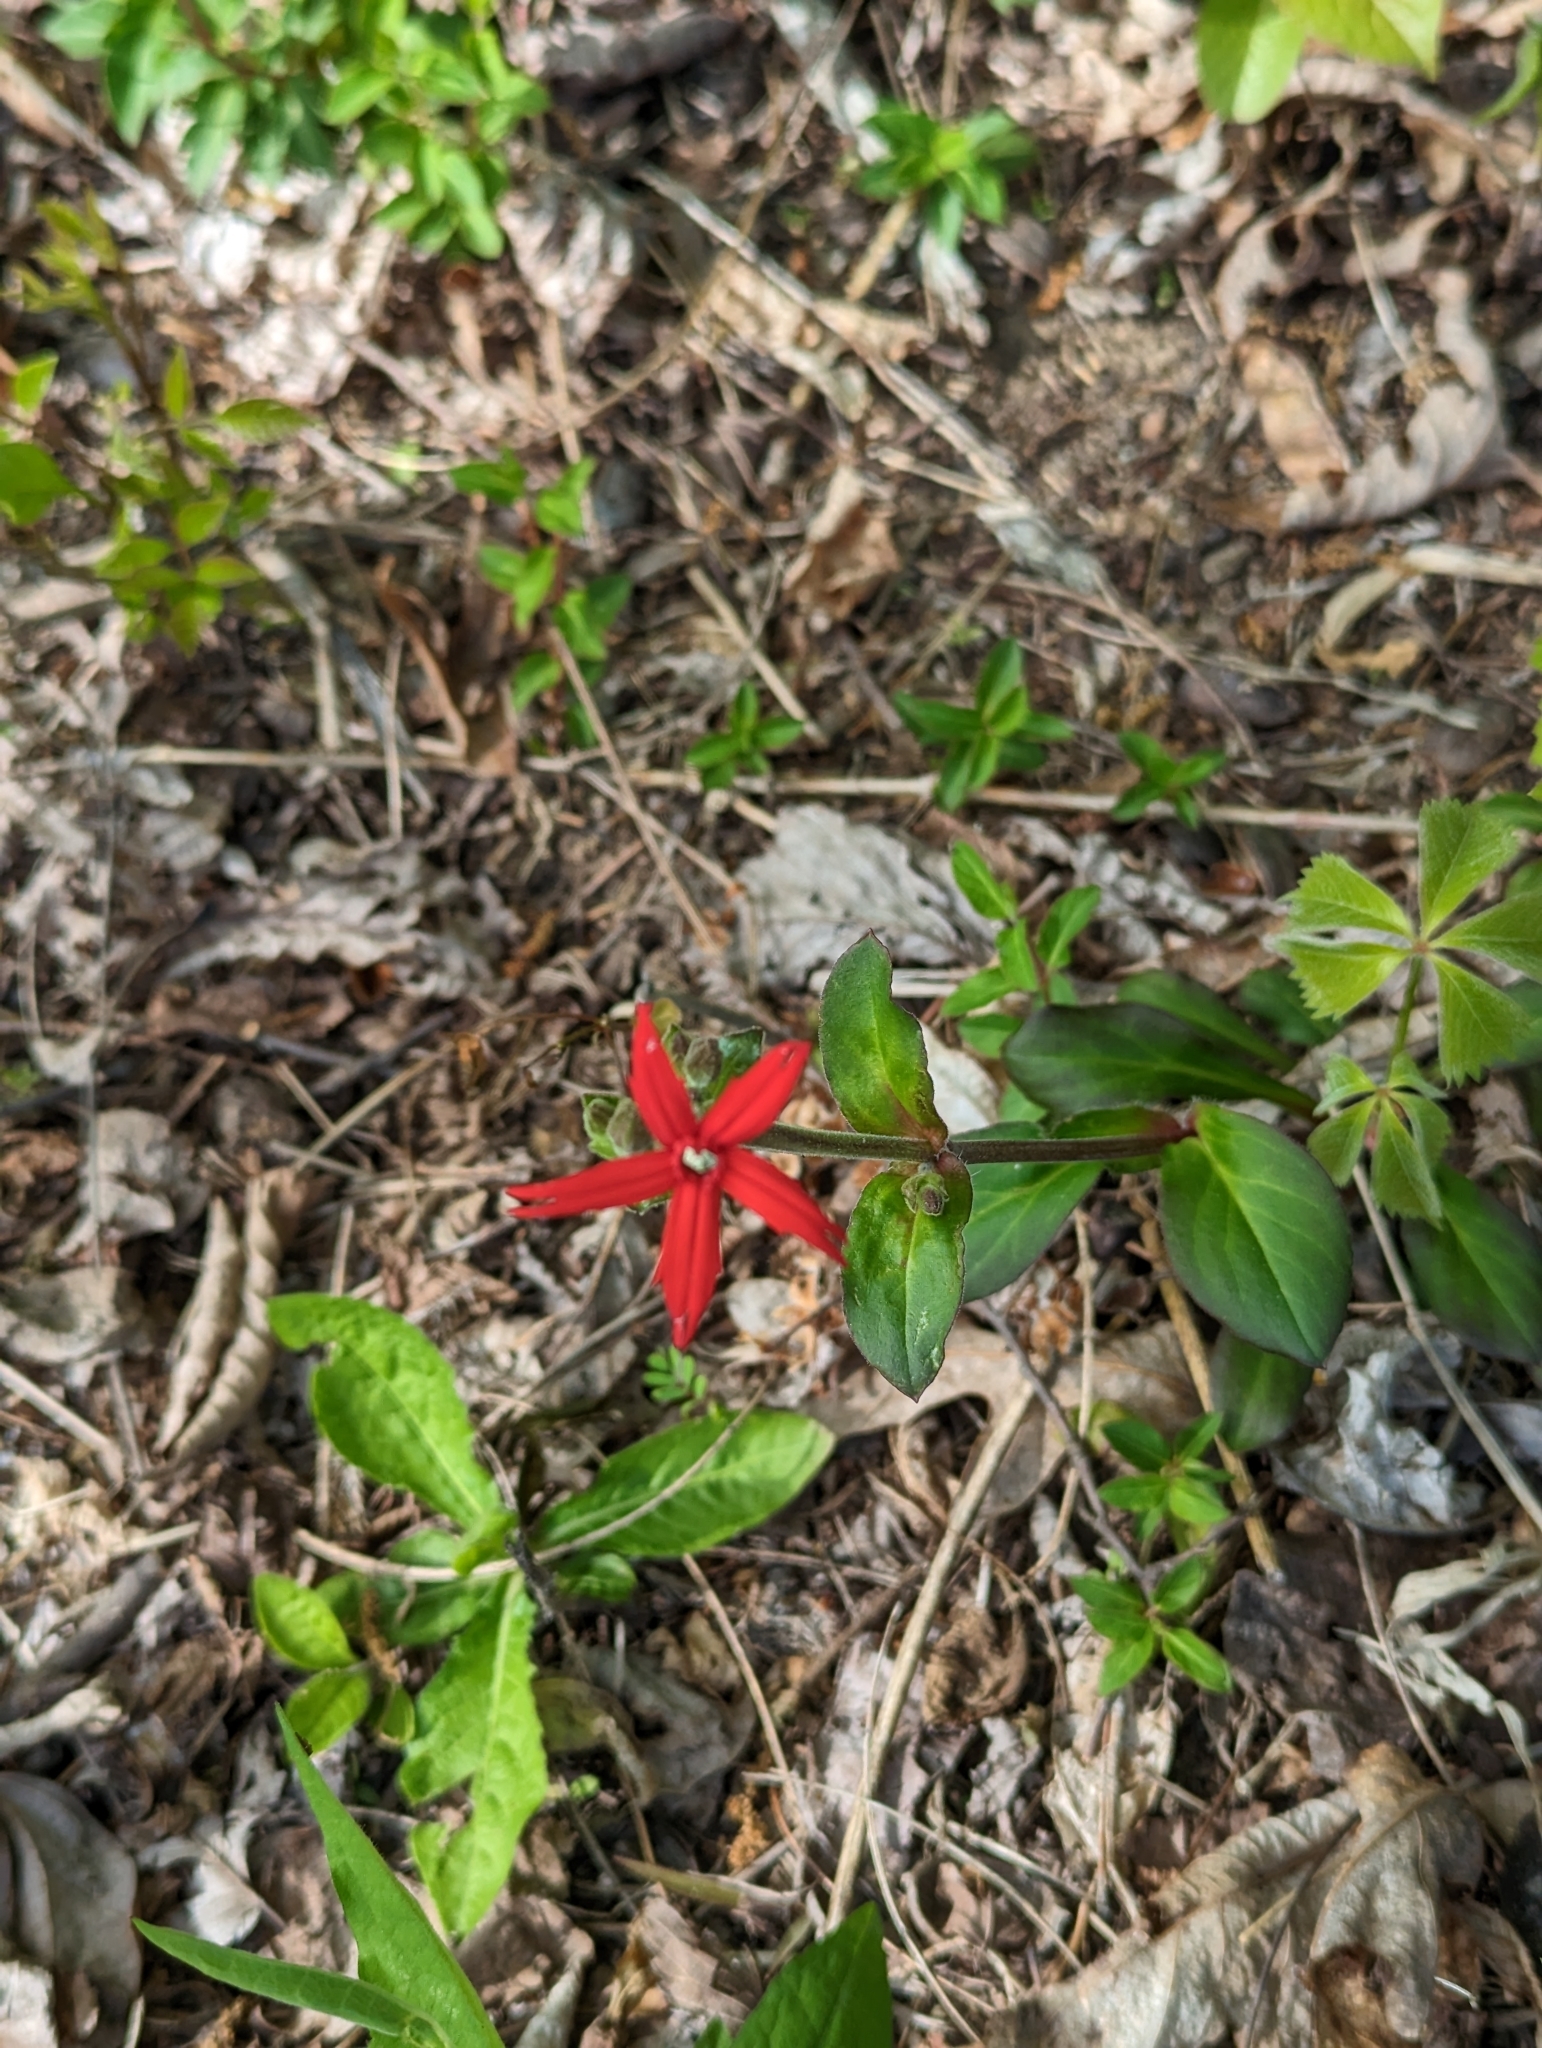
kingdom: Plantae
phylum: Tracheophyta
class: Magnoliopsida
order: Caryophyllales
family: Caryophyllaceae
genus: Silene
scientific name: Silene virginica
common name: Fire-pink
